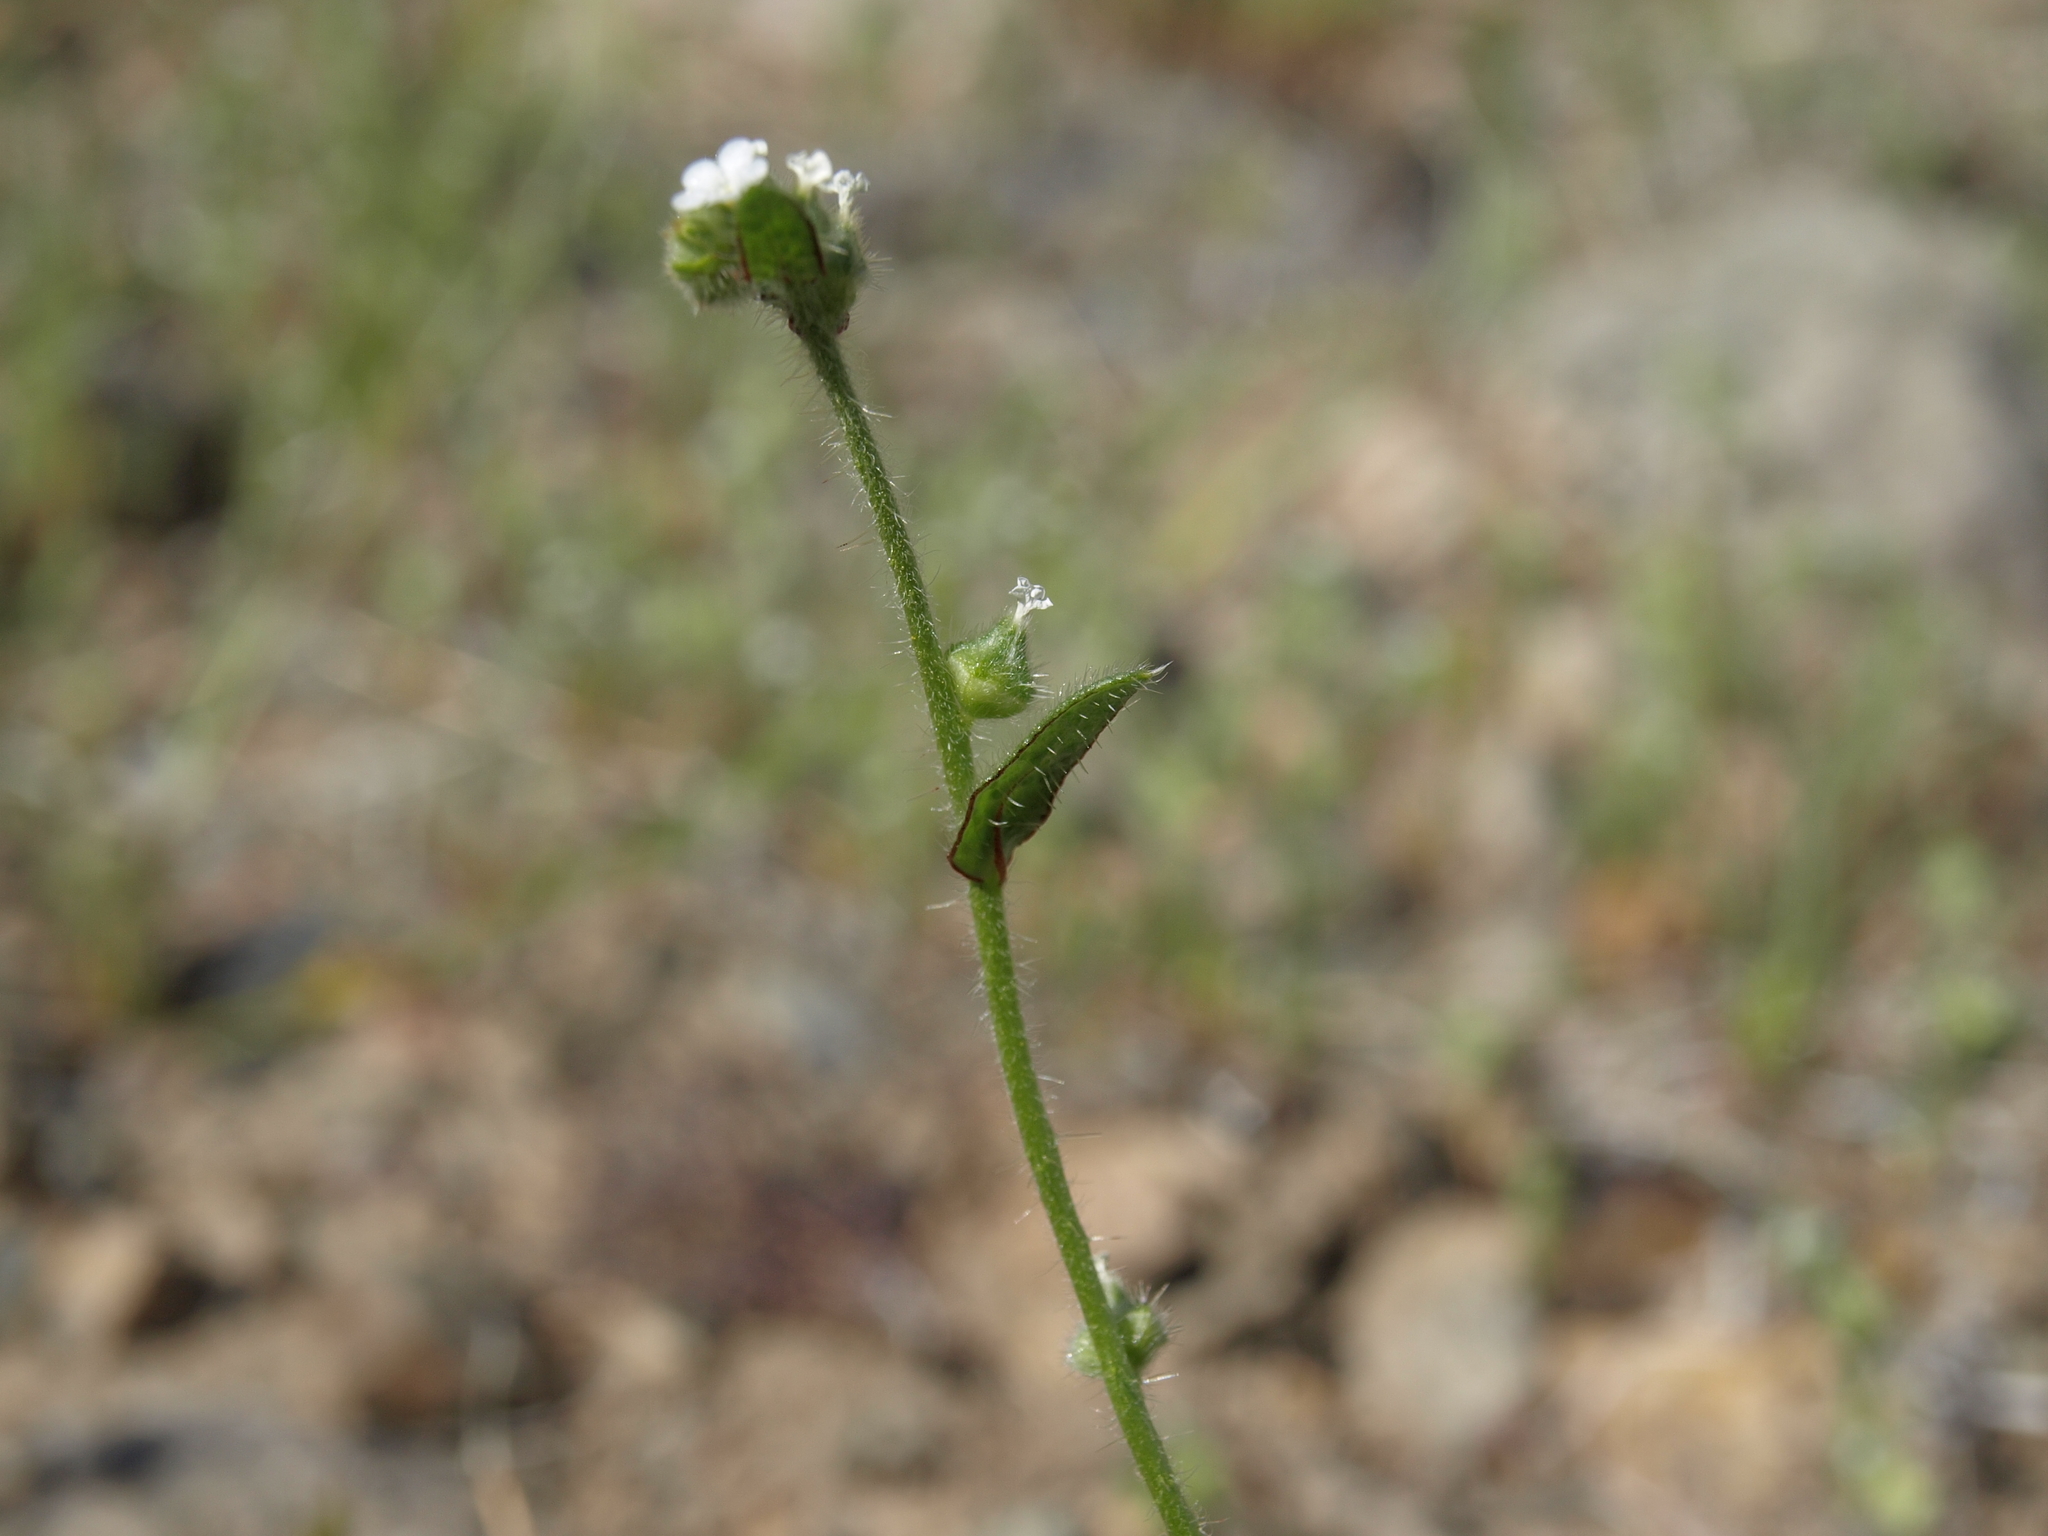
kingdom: Plantae
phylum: Tracheophyta
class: Magnoliopsida
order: Boraginales
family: Boraginaceae
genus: Plagiobothrys
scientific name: Plagiobothrys arizonicus
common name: Arizona popcorn-flower
